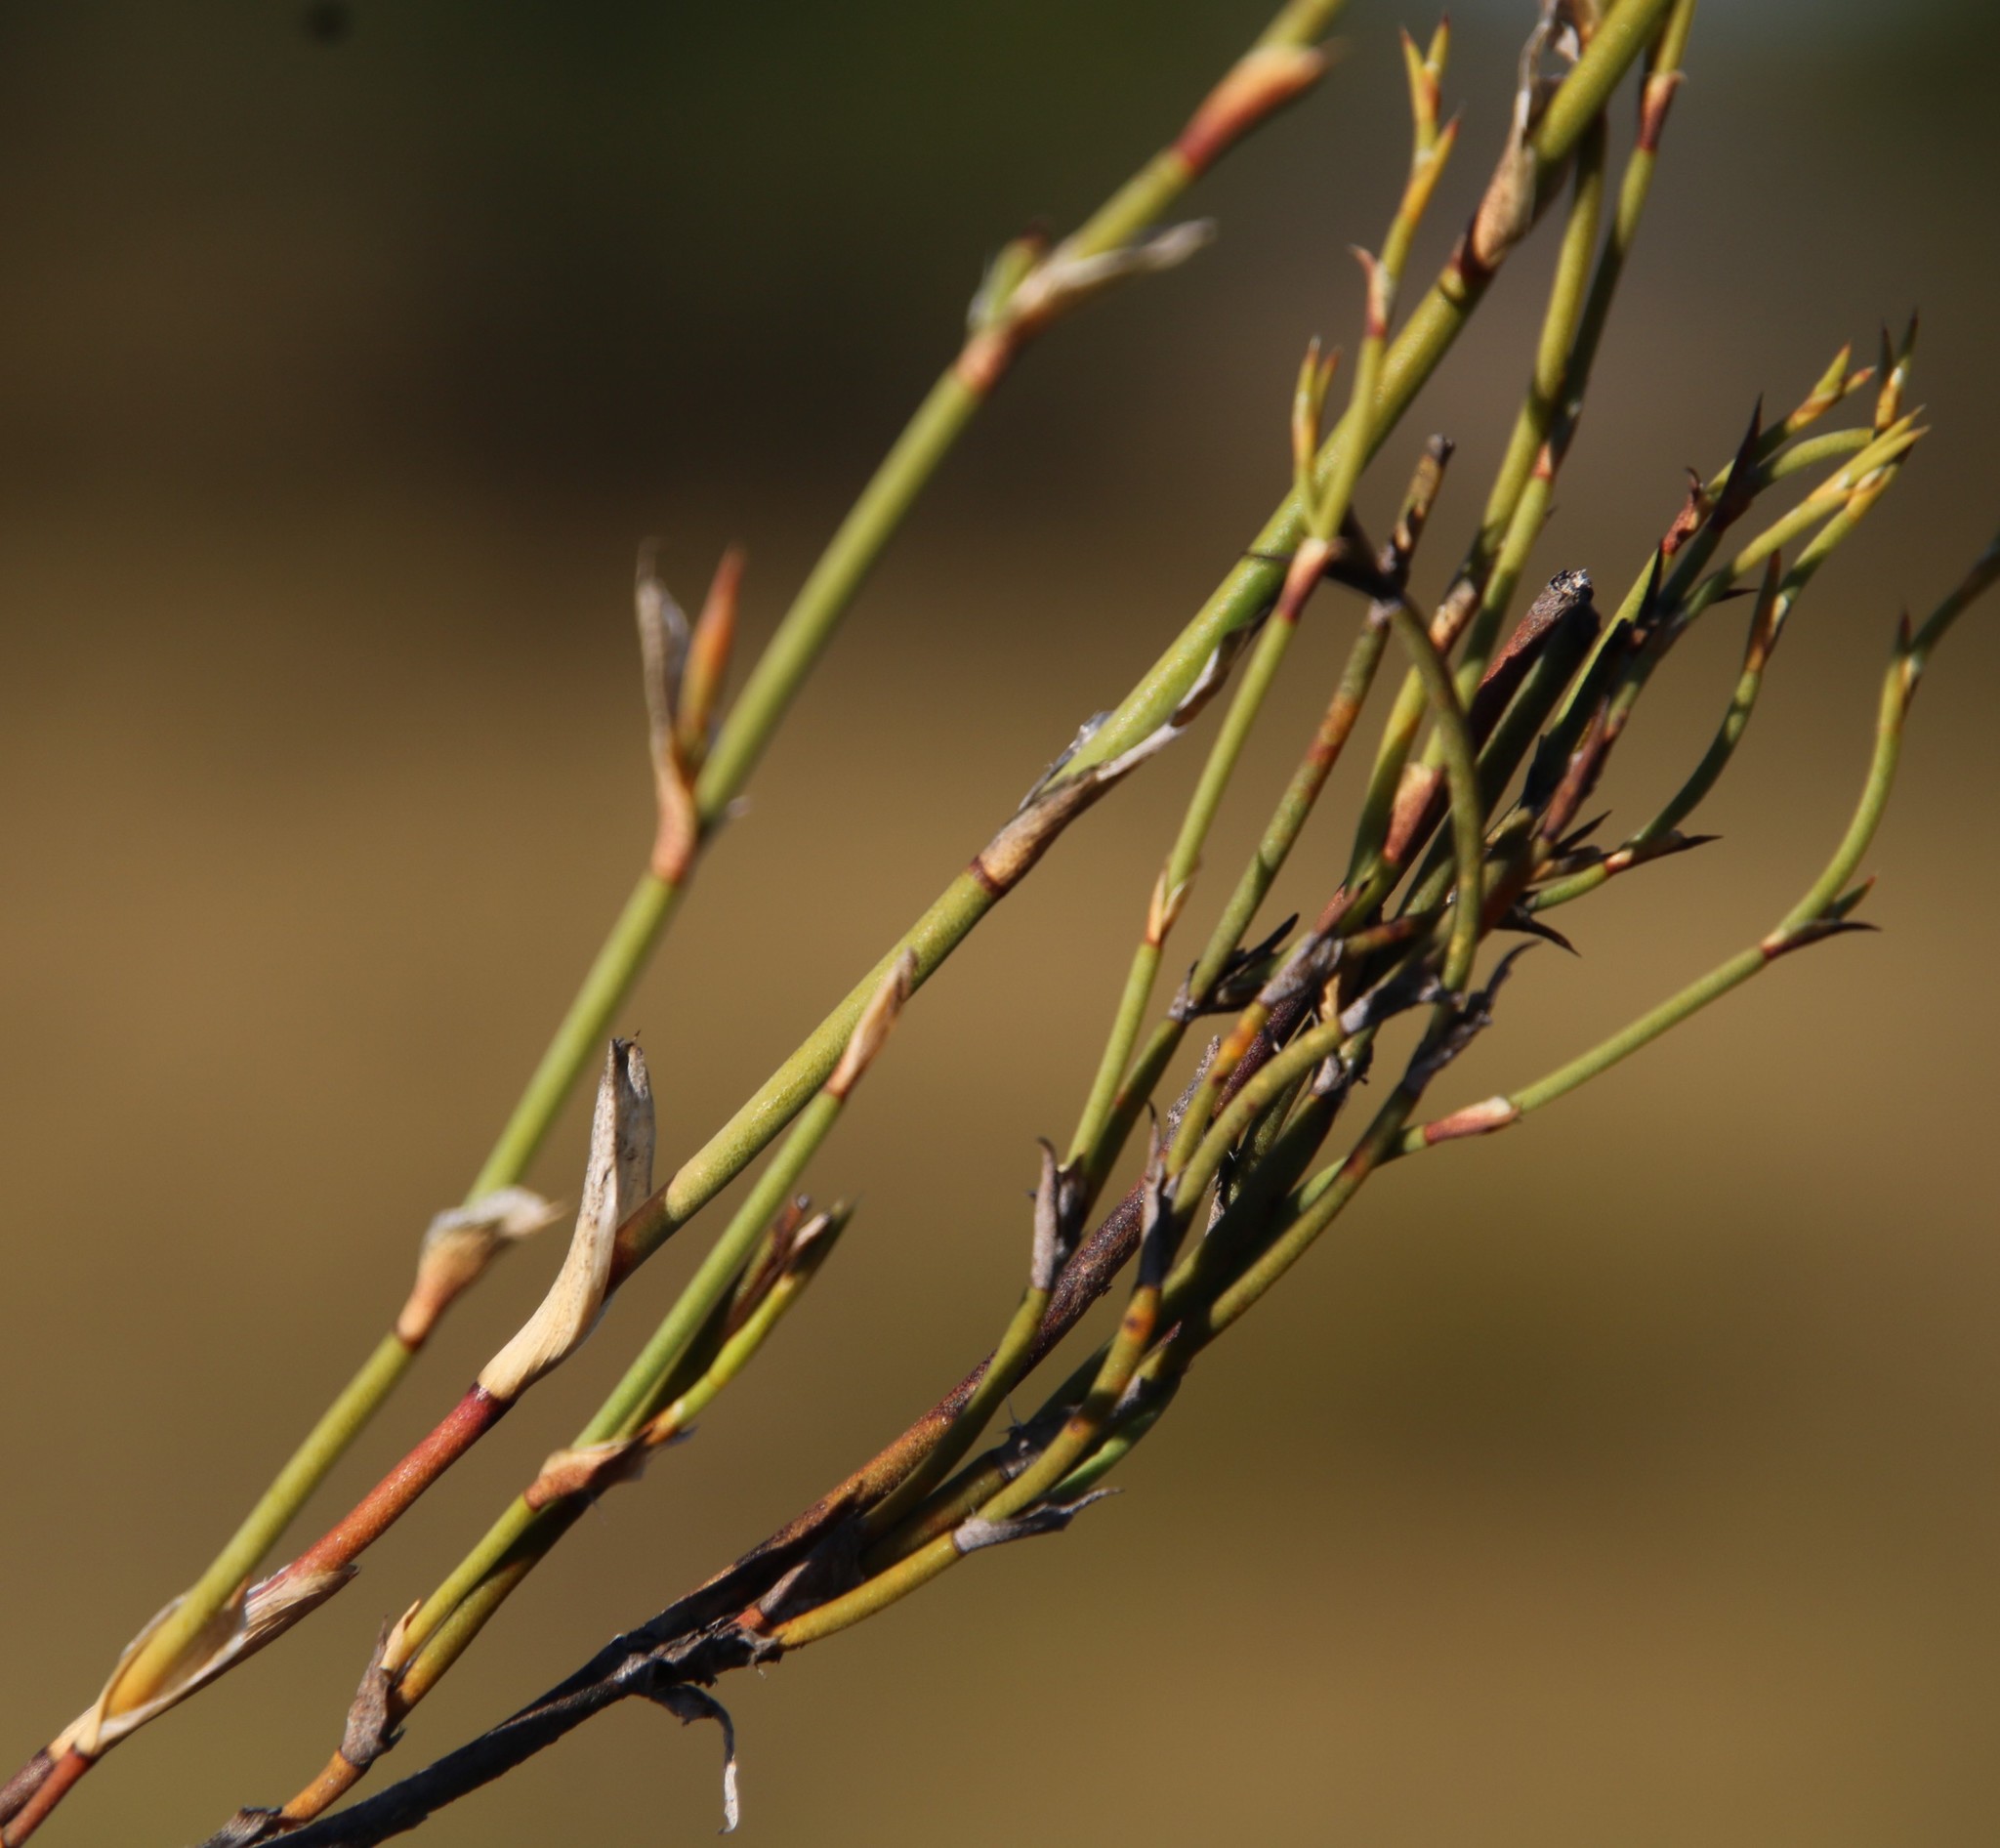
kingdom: Plantae
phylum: Tracheophyta
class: Liliopsida
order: Poales
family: Restionaceae
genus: Restio
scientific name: Restio vimineus
